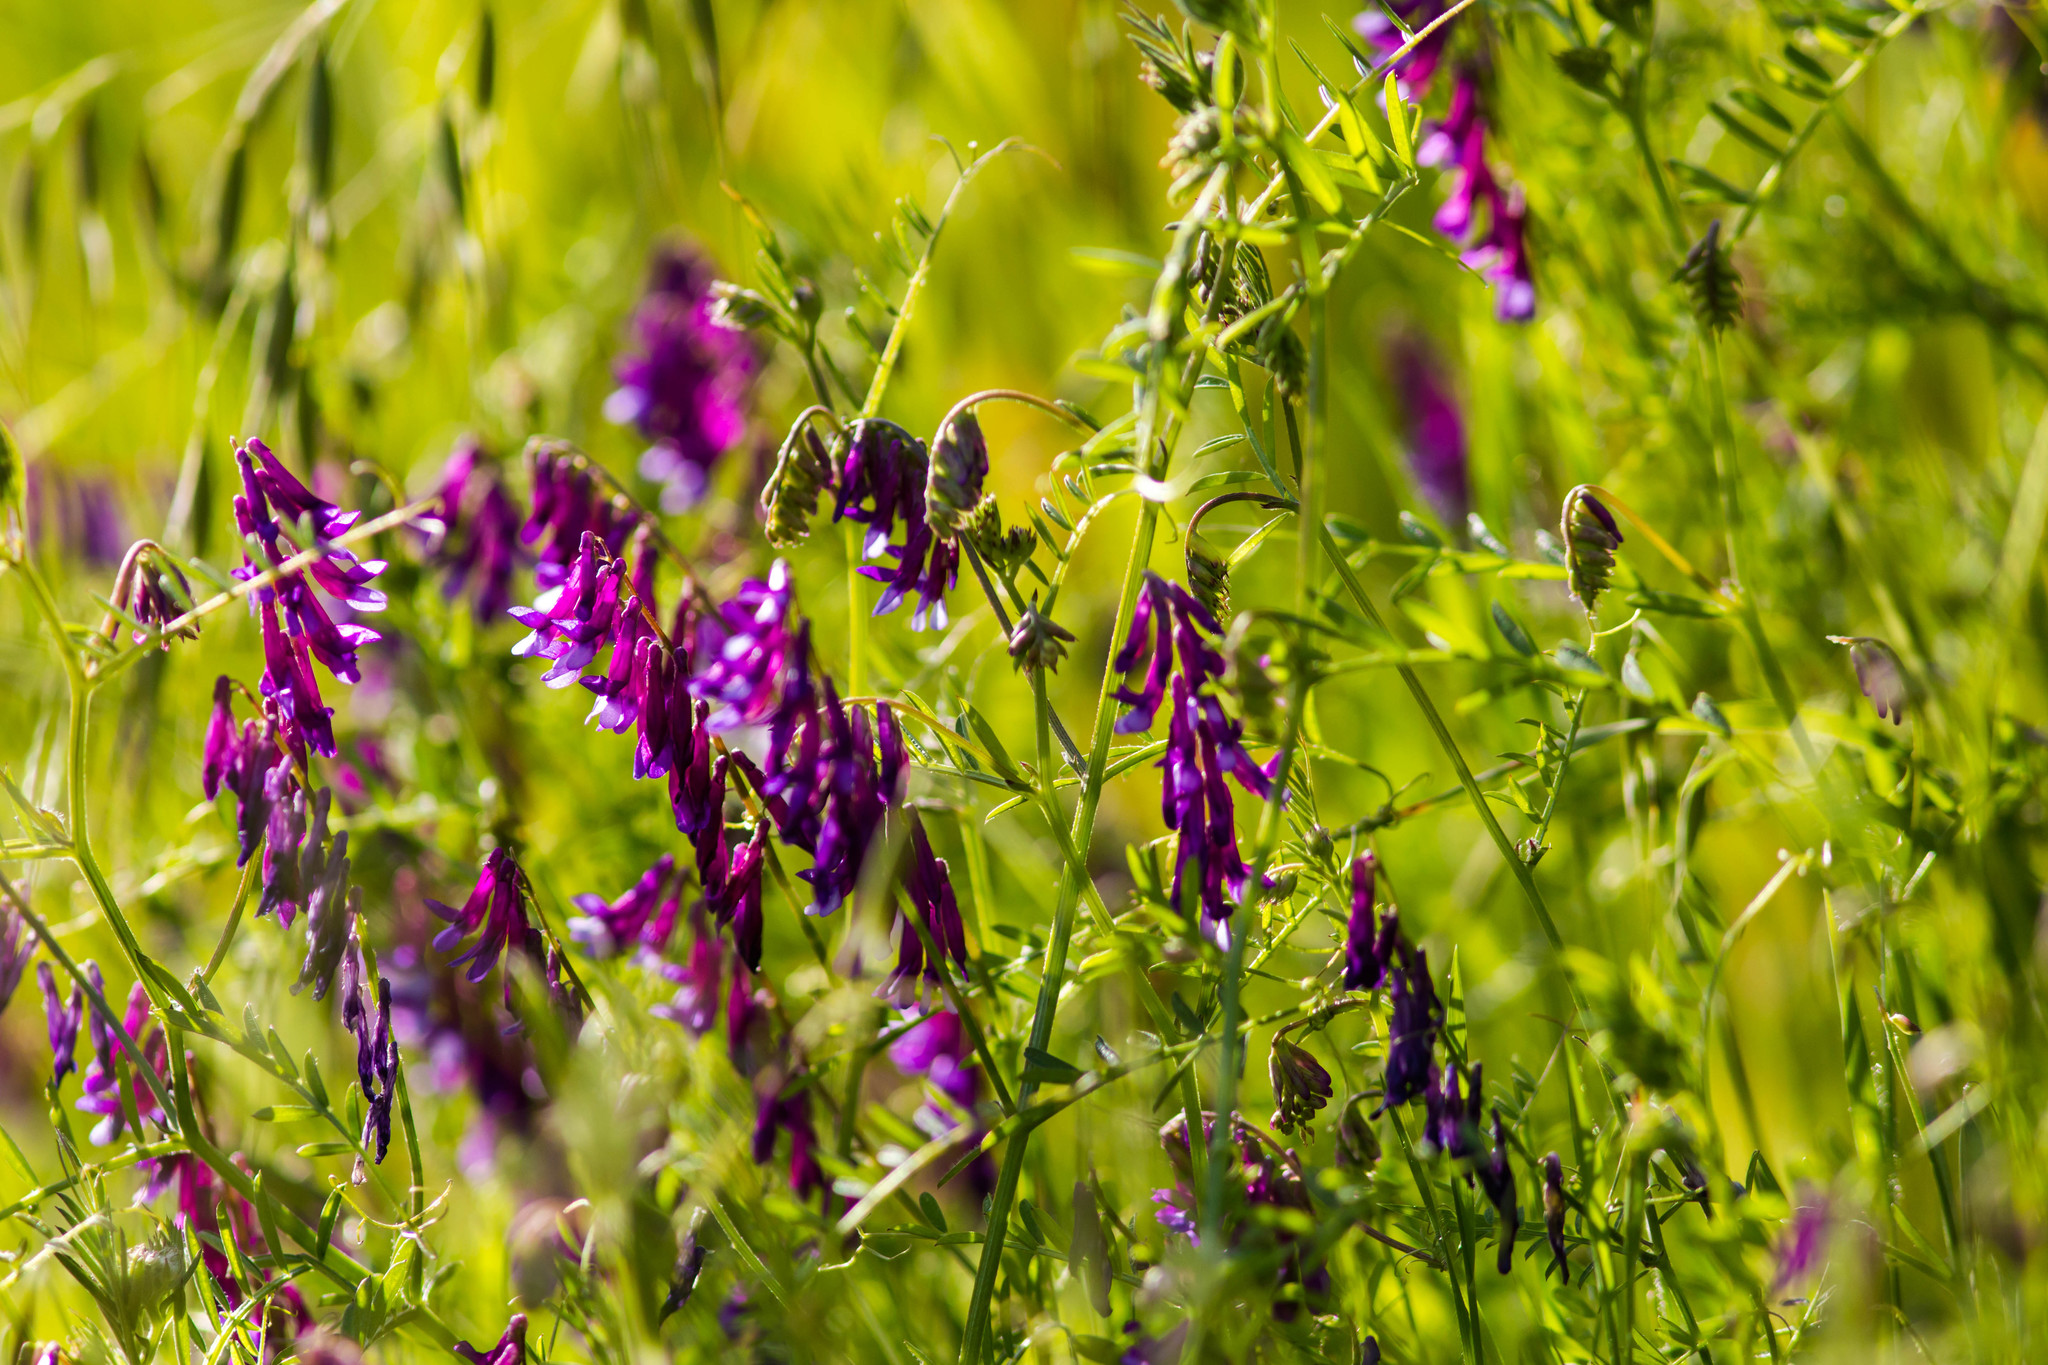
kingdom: Plantae
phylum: Tracheophyta
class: Magnoliopsida
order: Fabales
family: Fabaceae
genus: Vicia
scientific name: Vicia villosa
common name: Fodder vetch
